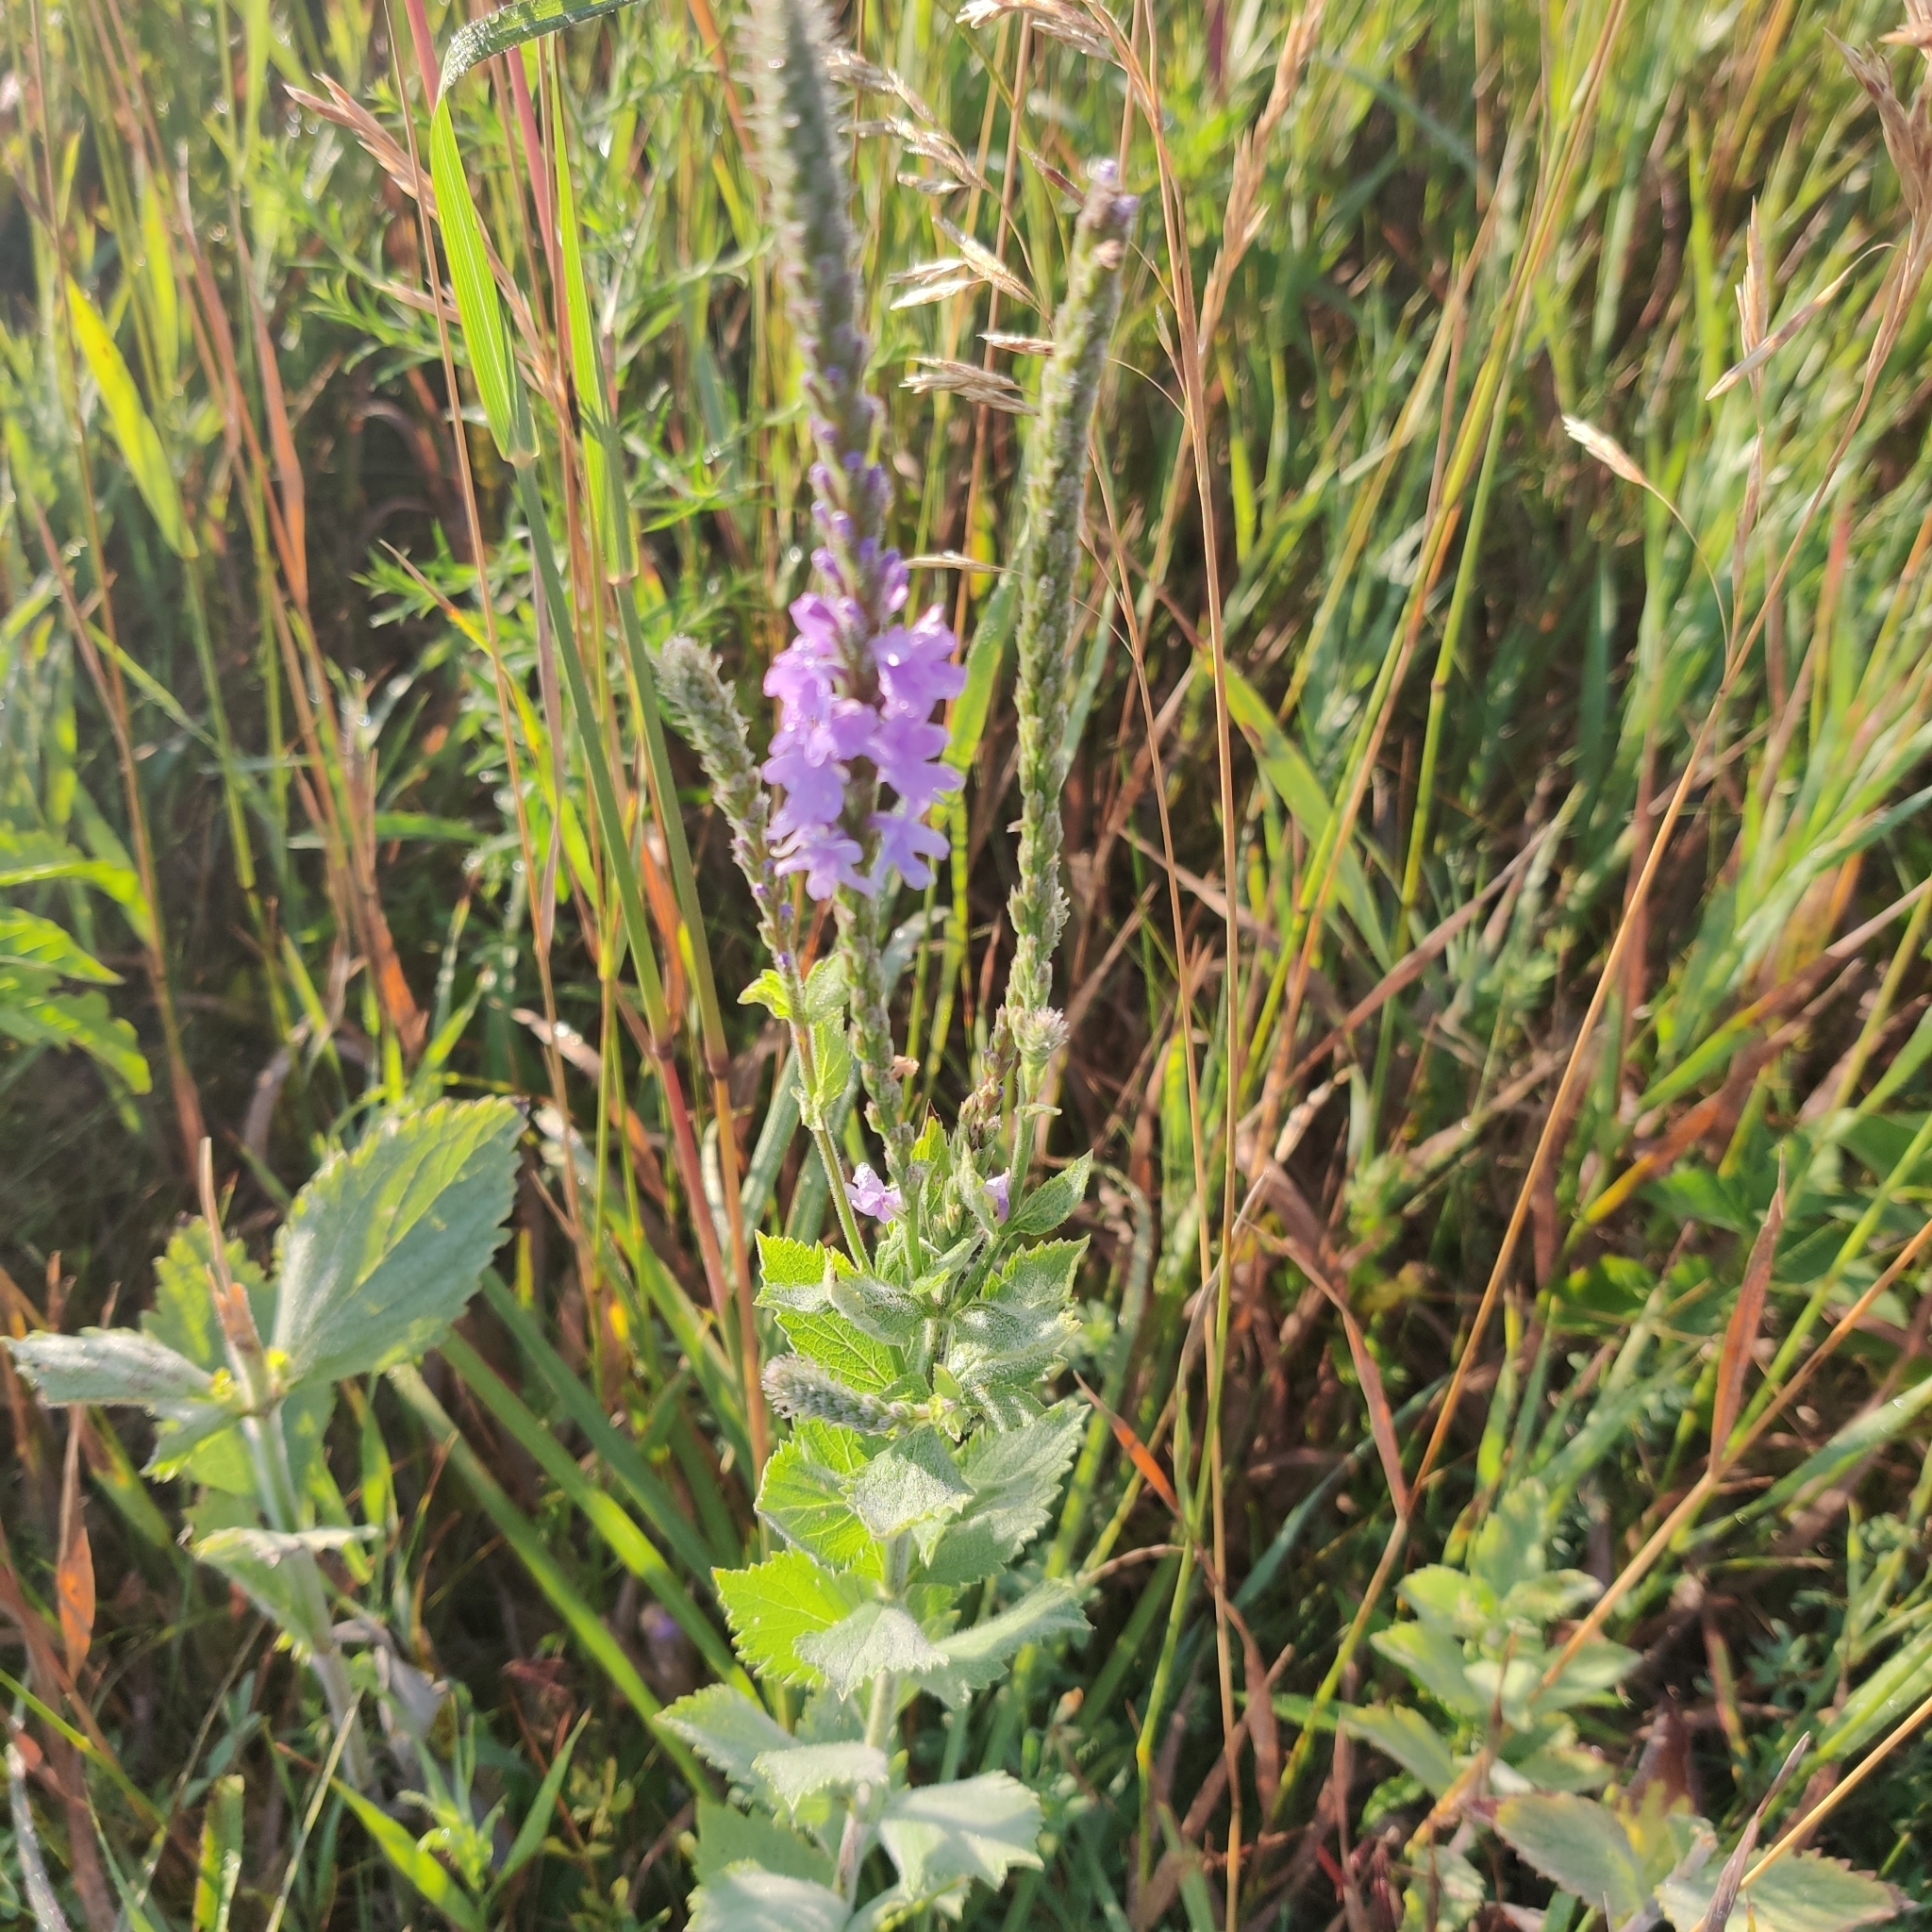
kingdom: Plantae
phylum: Tracheophyta
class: Magnoliopsida
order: Lamiales
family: Verbenaceae
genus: Verbena
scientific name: Verbena stricta
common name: Hoary vervain
